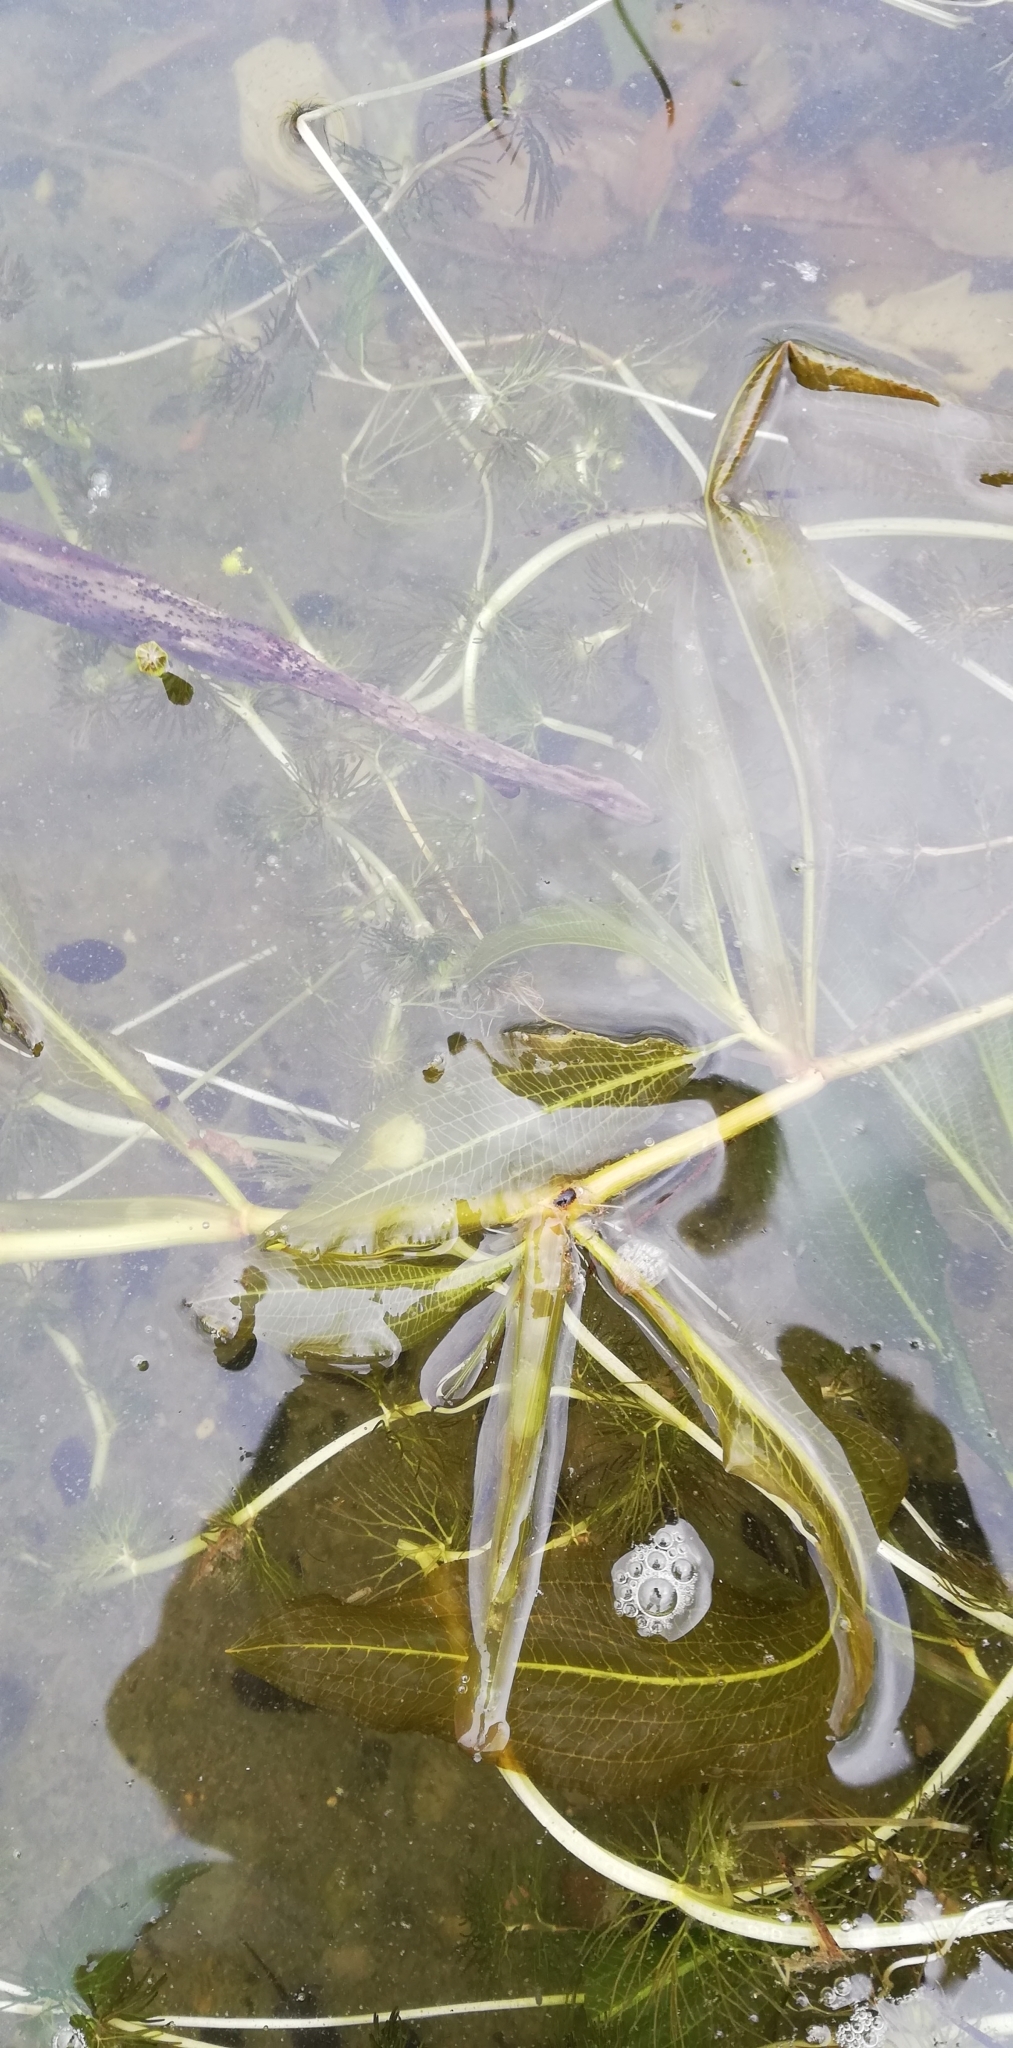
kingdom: Plantae
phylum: Tracheophyta
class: Liliopsida
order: Alismatales
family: Potamogetonaceae
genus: Potamogeton
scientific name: Potamogeton lucens
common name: Shining pondweed
